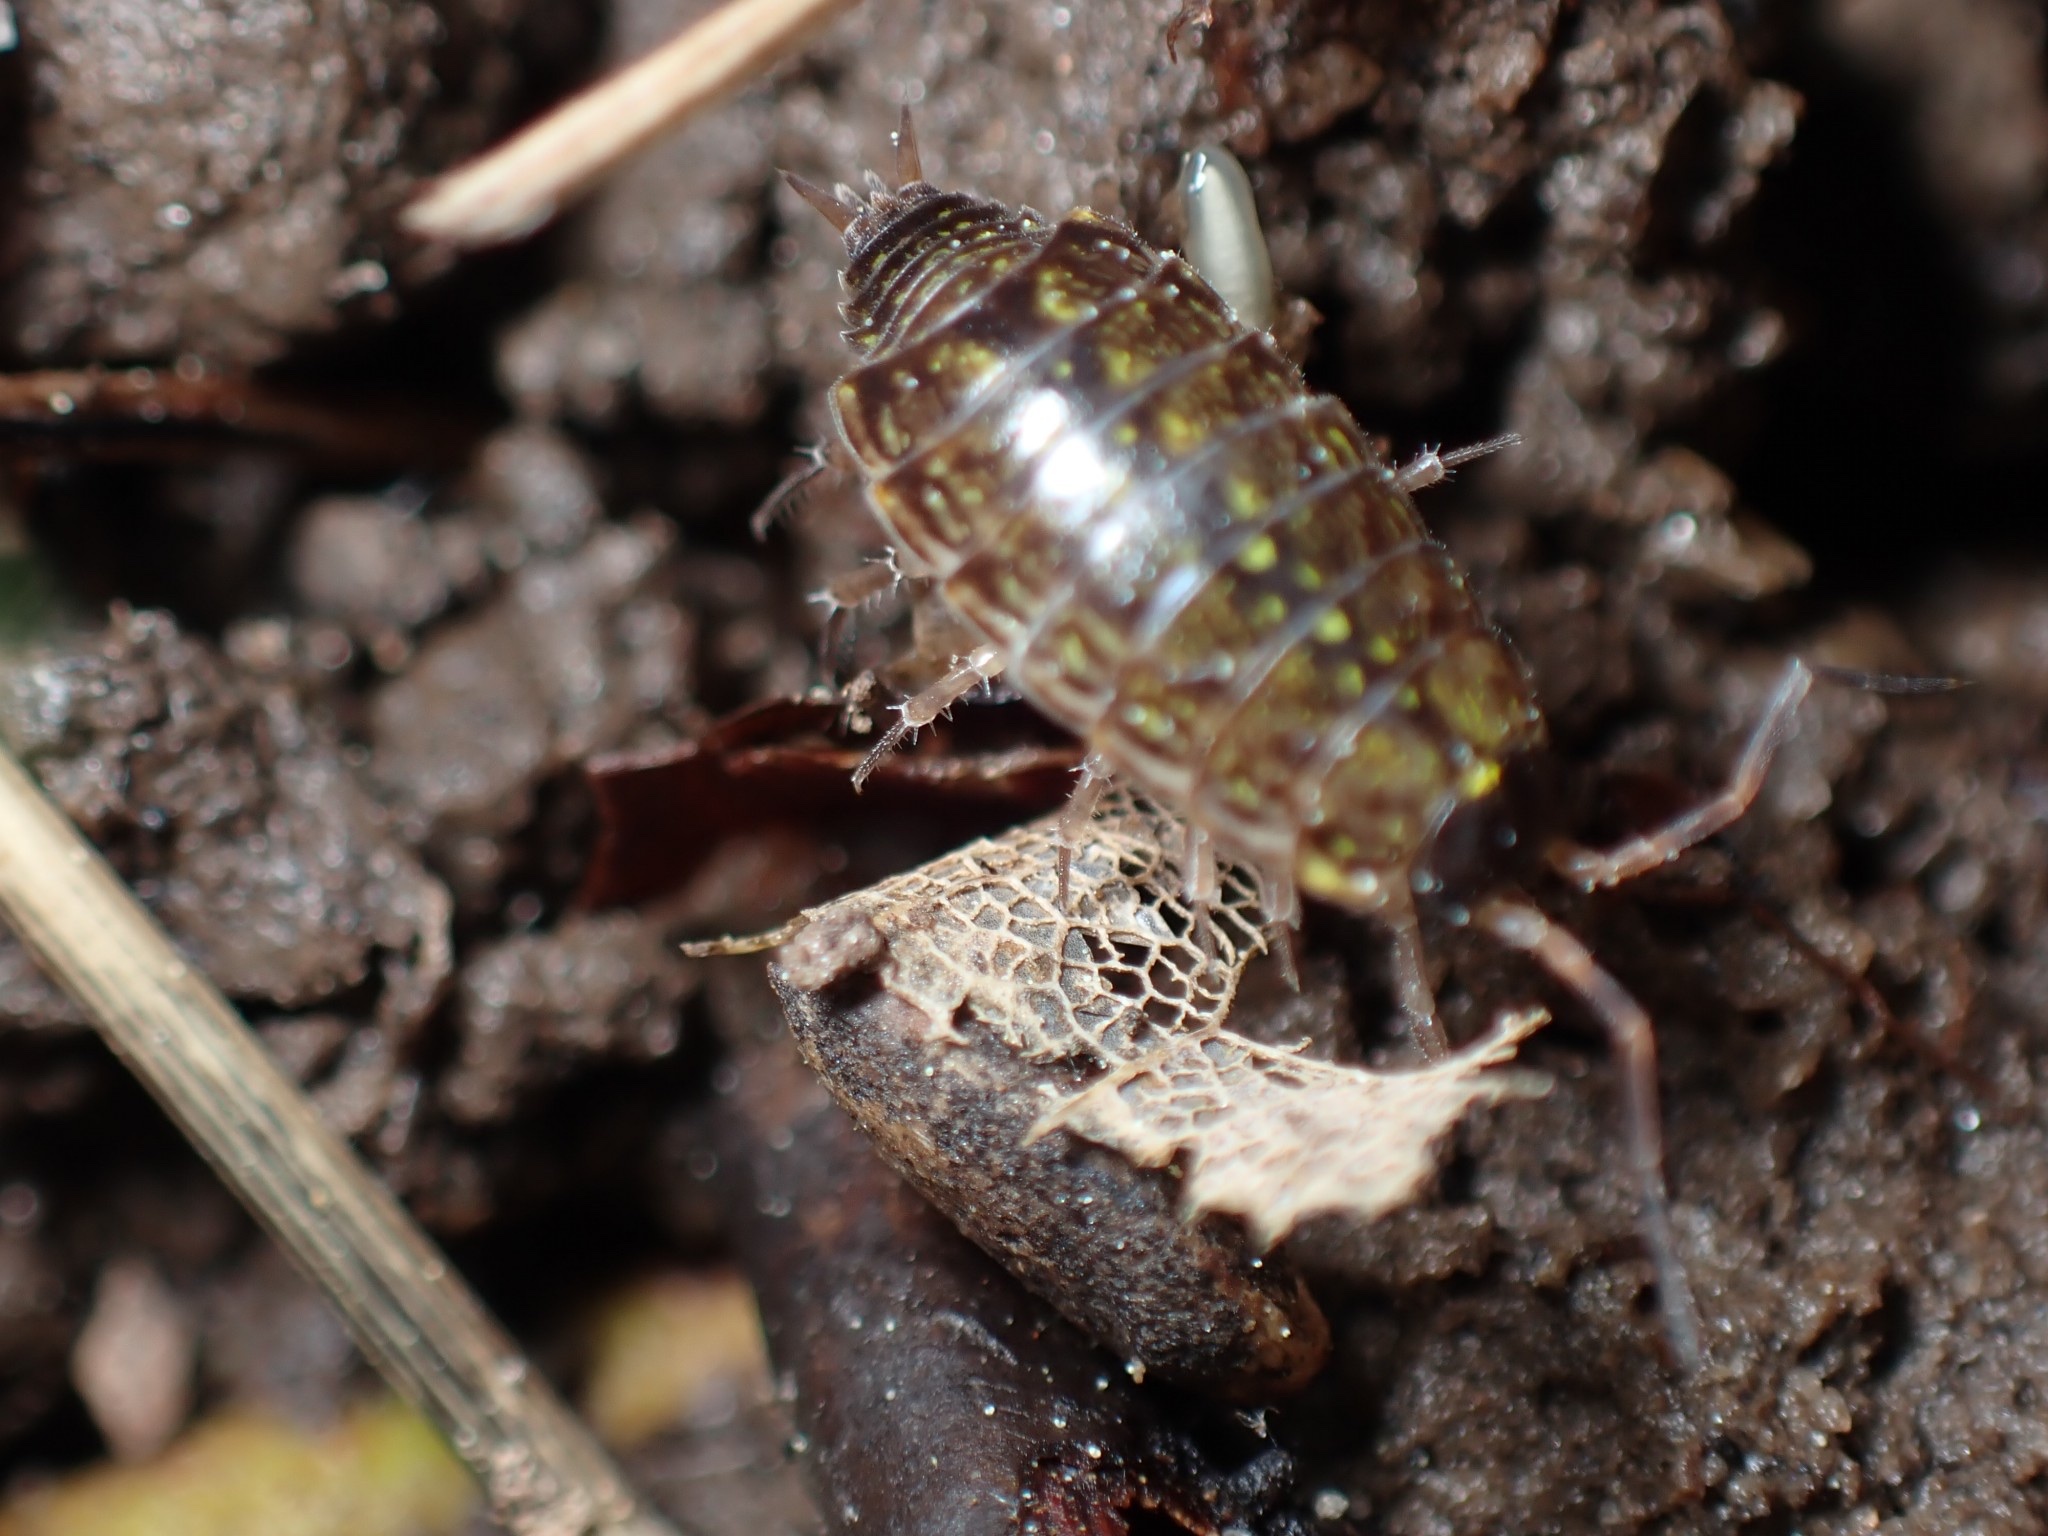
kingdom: Animalia
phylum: Arthropoda
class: Malacostraca
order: Isopoda
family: Philosciidae
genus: Philoscia
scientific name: Philoscia muscorum
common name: Common striped woodlouse
